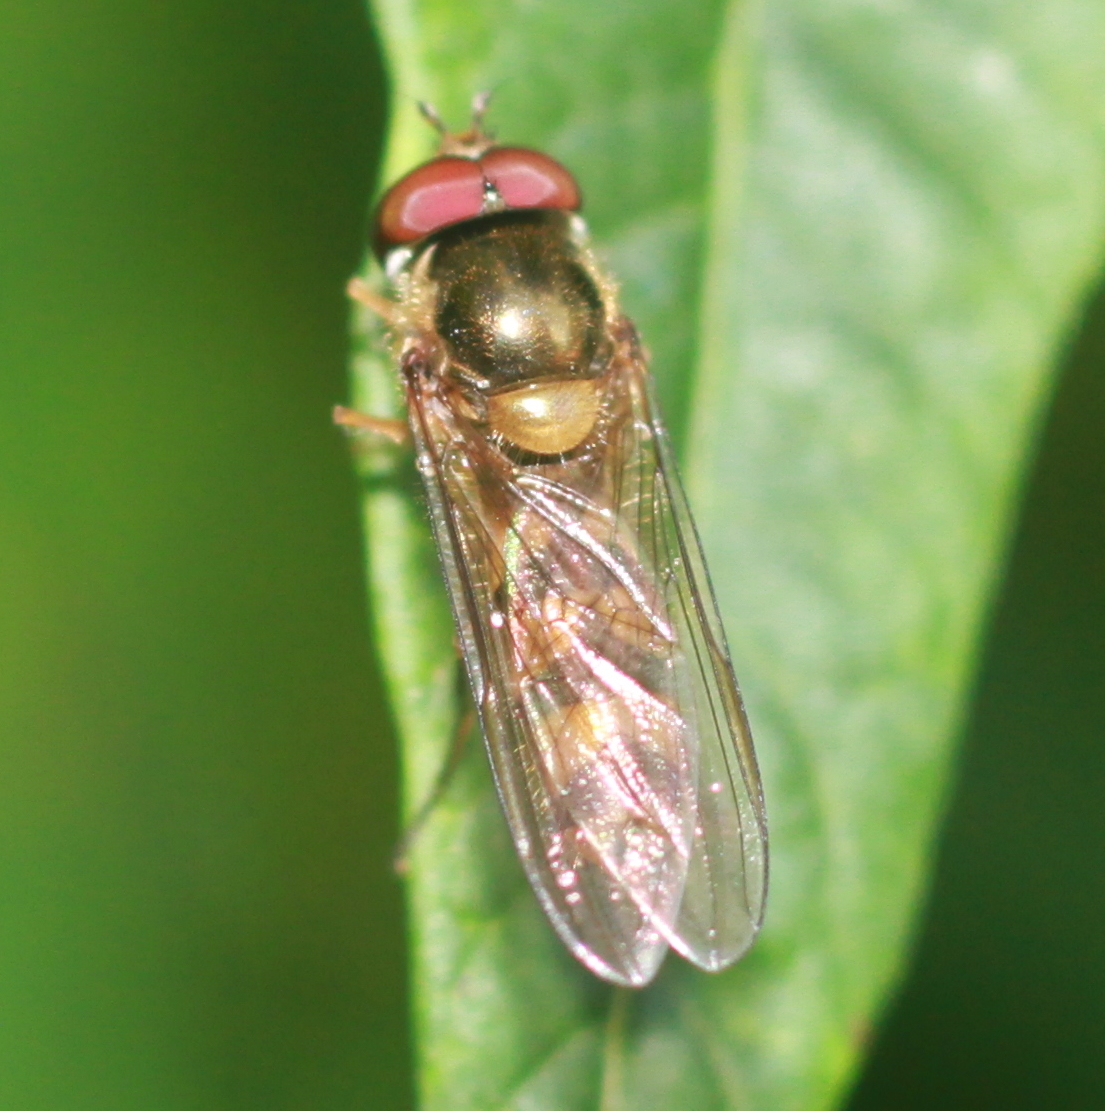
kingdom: Animalia
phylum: Arthropoda
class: Insecta
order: Diptera
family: Syrphidae
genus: Meliscaeva
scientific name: Meliscaeva auricollis
